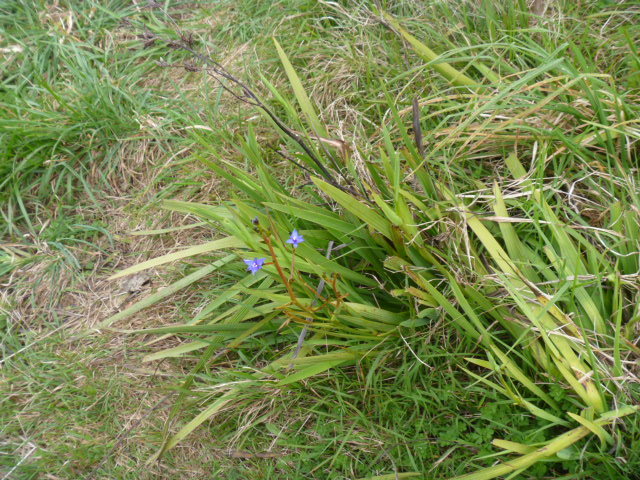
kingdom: Plantae
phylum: Tracheophyta
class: Liliopsida
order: Asparagales
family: Iridaceae
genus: Aristea
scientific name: Aristea ecklonii
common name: Blue corn-lily
